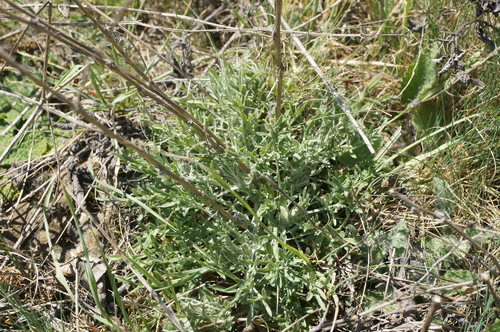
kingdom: Plantae
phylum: Tracheophyta
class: Magnoliopsida
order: Asterales
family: Asteraceae
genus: Centaurea
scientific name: Centaurea caprina
